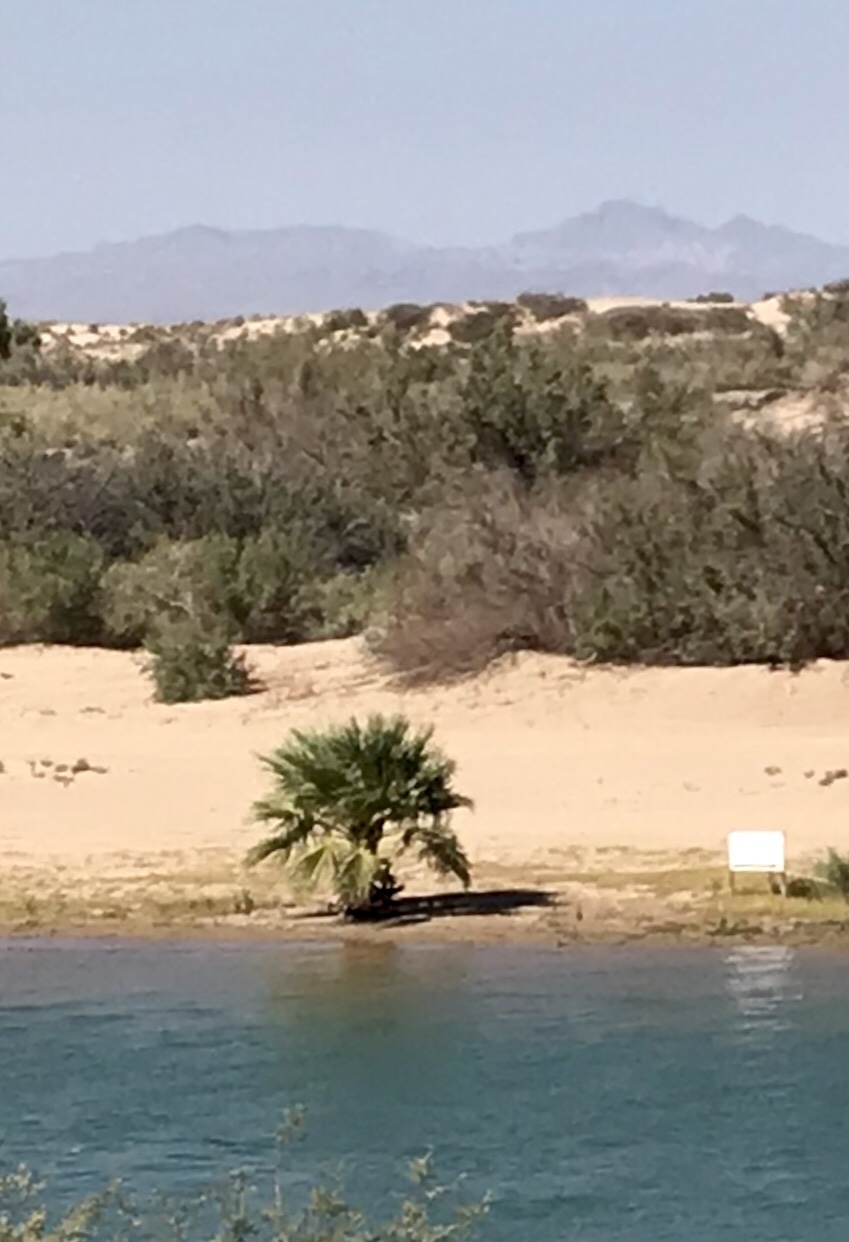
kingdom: Plantae
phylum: Tracheophyta
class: Liliopsida
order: Arecales
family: Arecaceae
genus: Washingtonia
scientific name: Washingtonia filifera
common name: California fan palm
